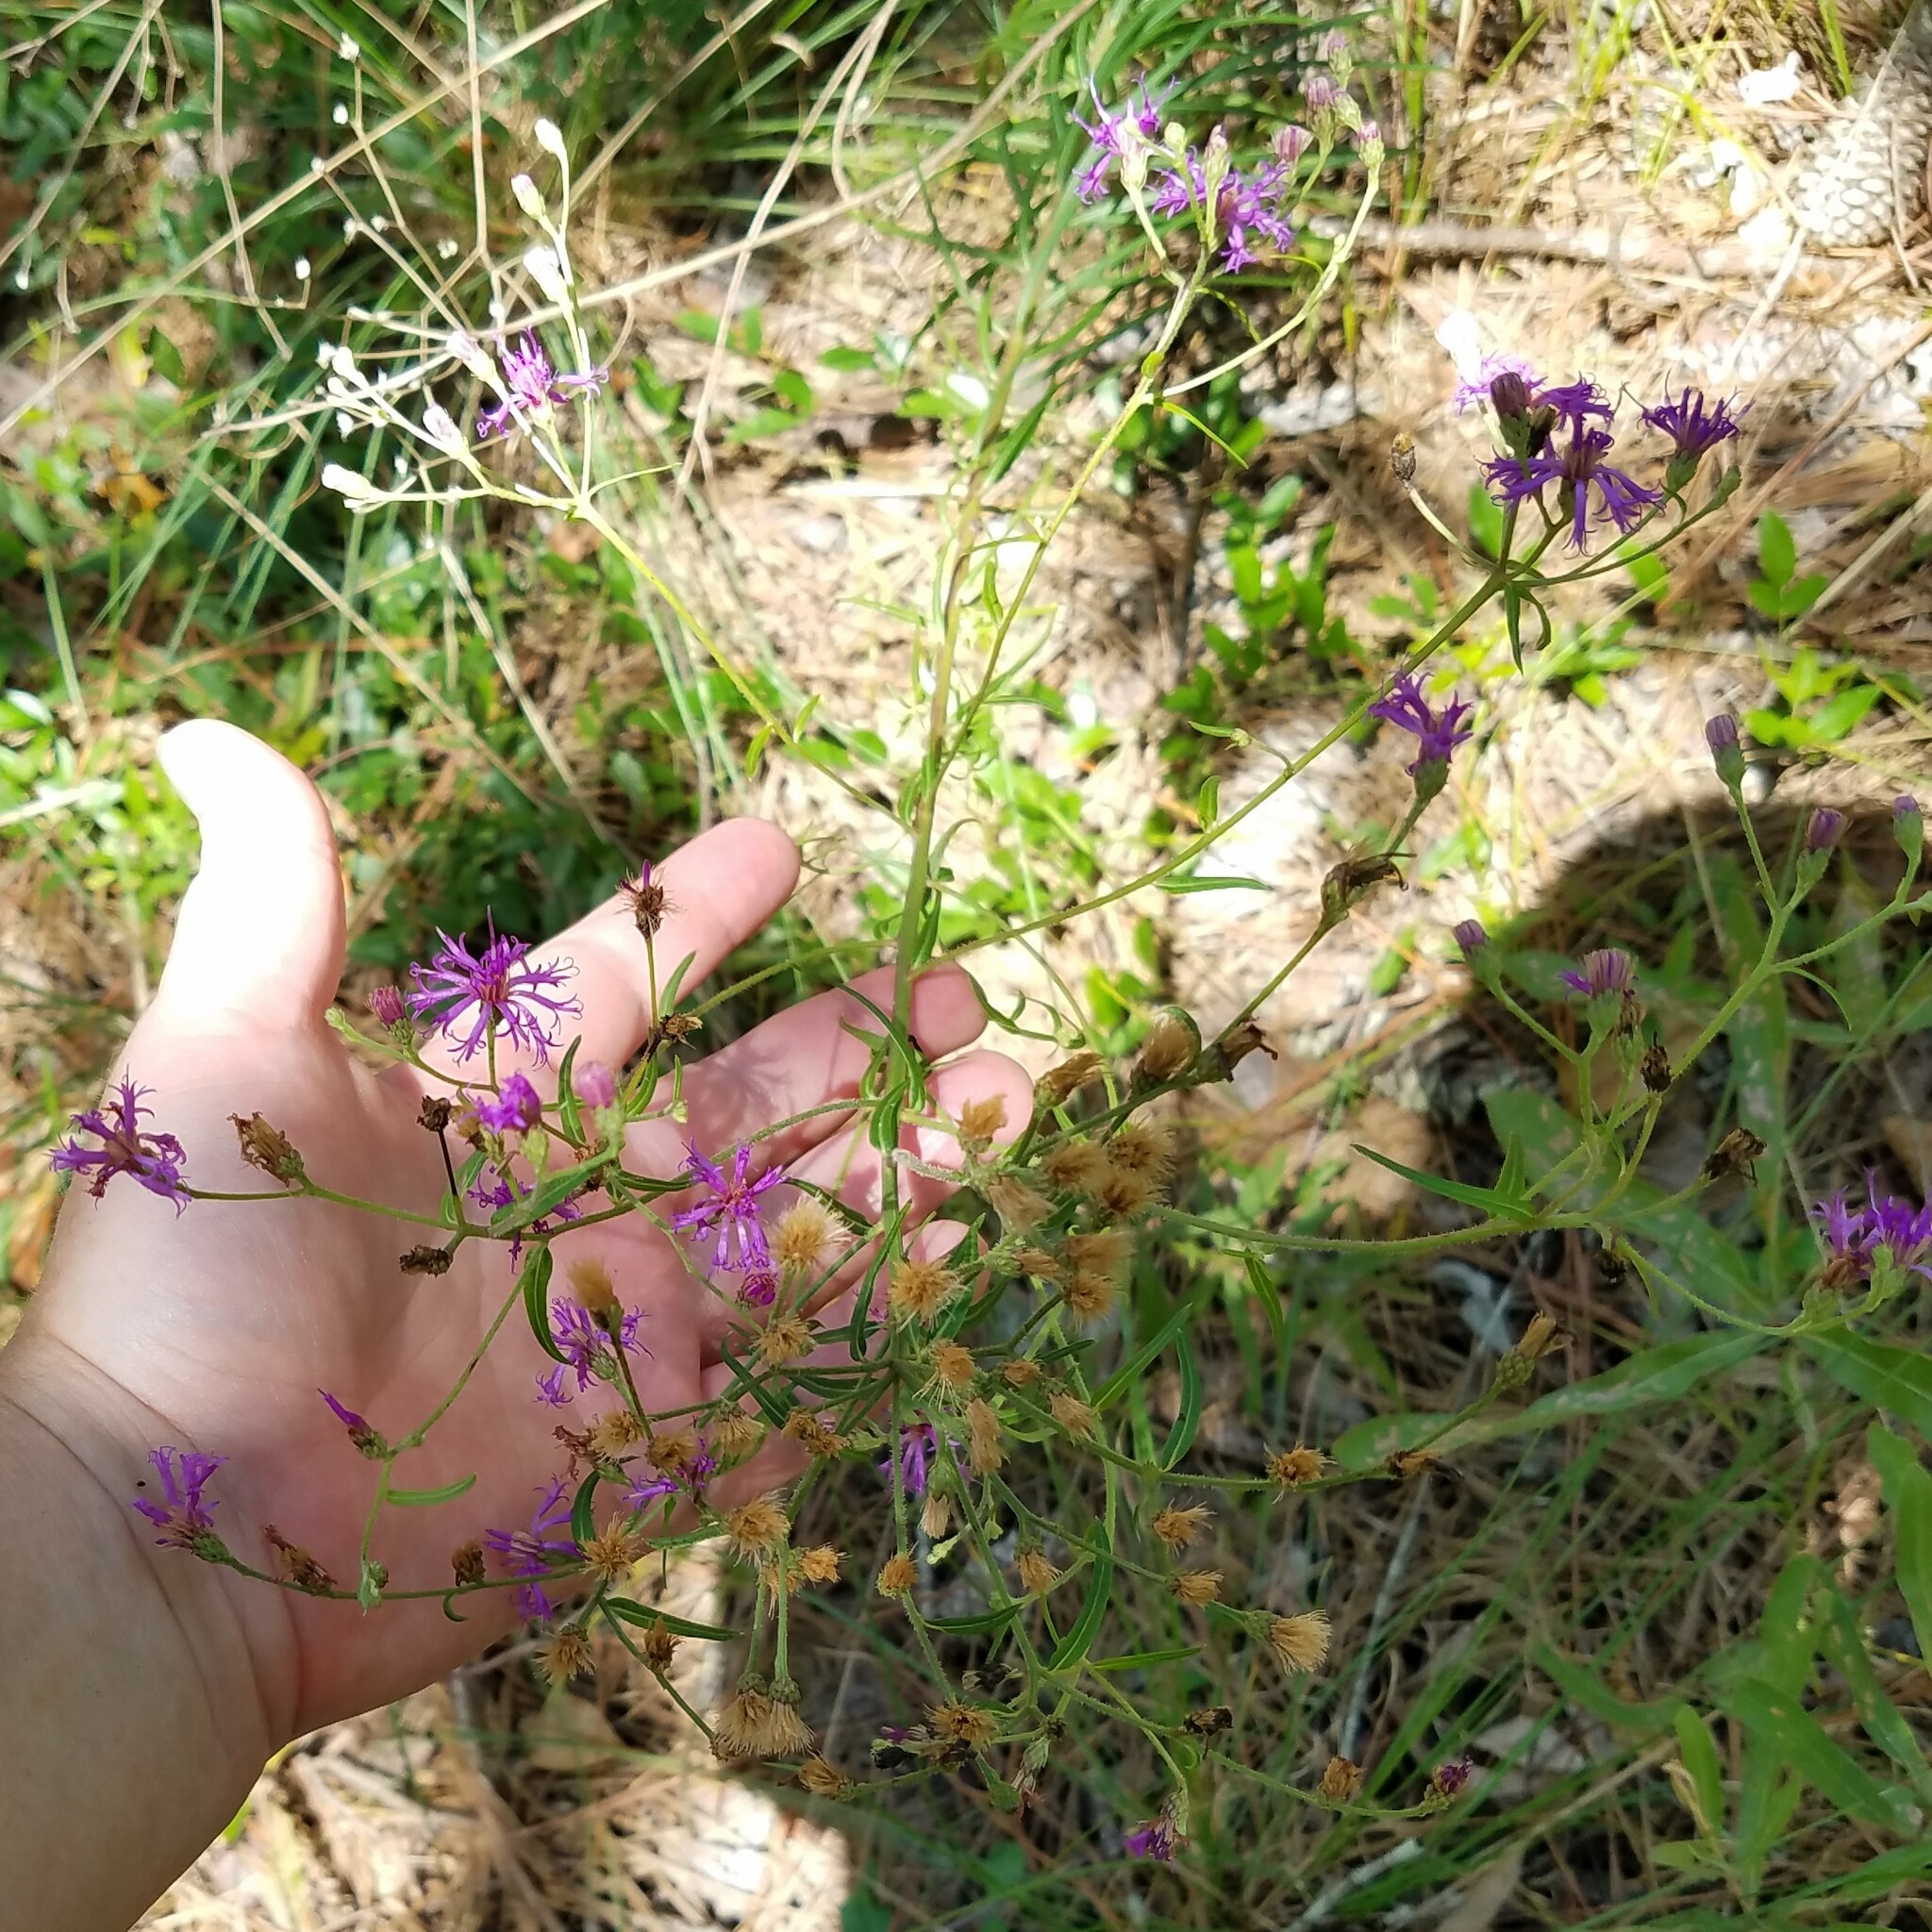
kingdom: Plantae
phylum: Tracheophyta
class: Magnoliopsida
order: Asterales
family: Asteraceae
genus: Vernonia
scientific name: Vernonia angustifolia
